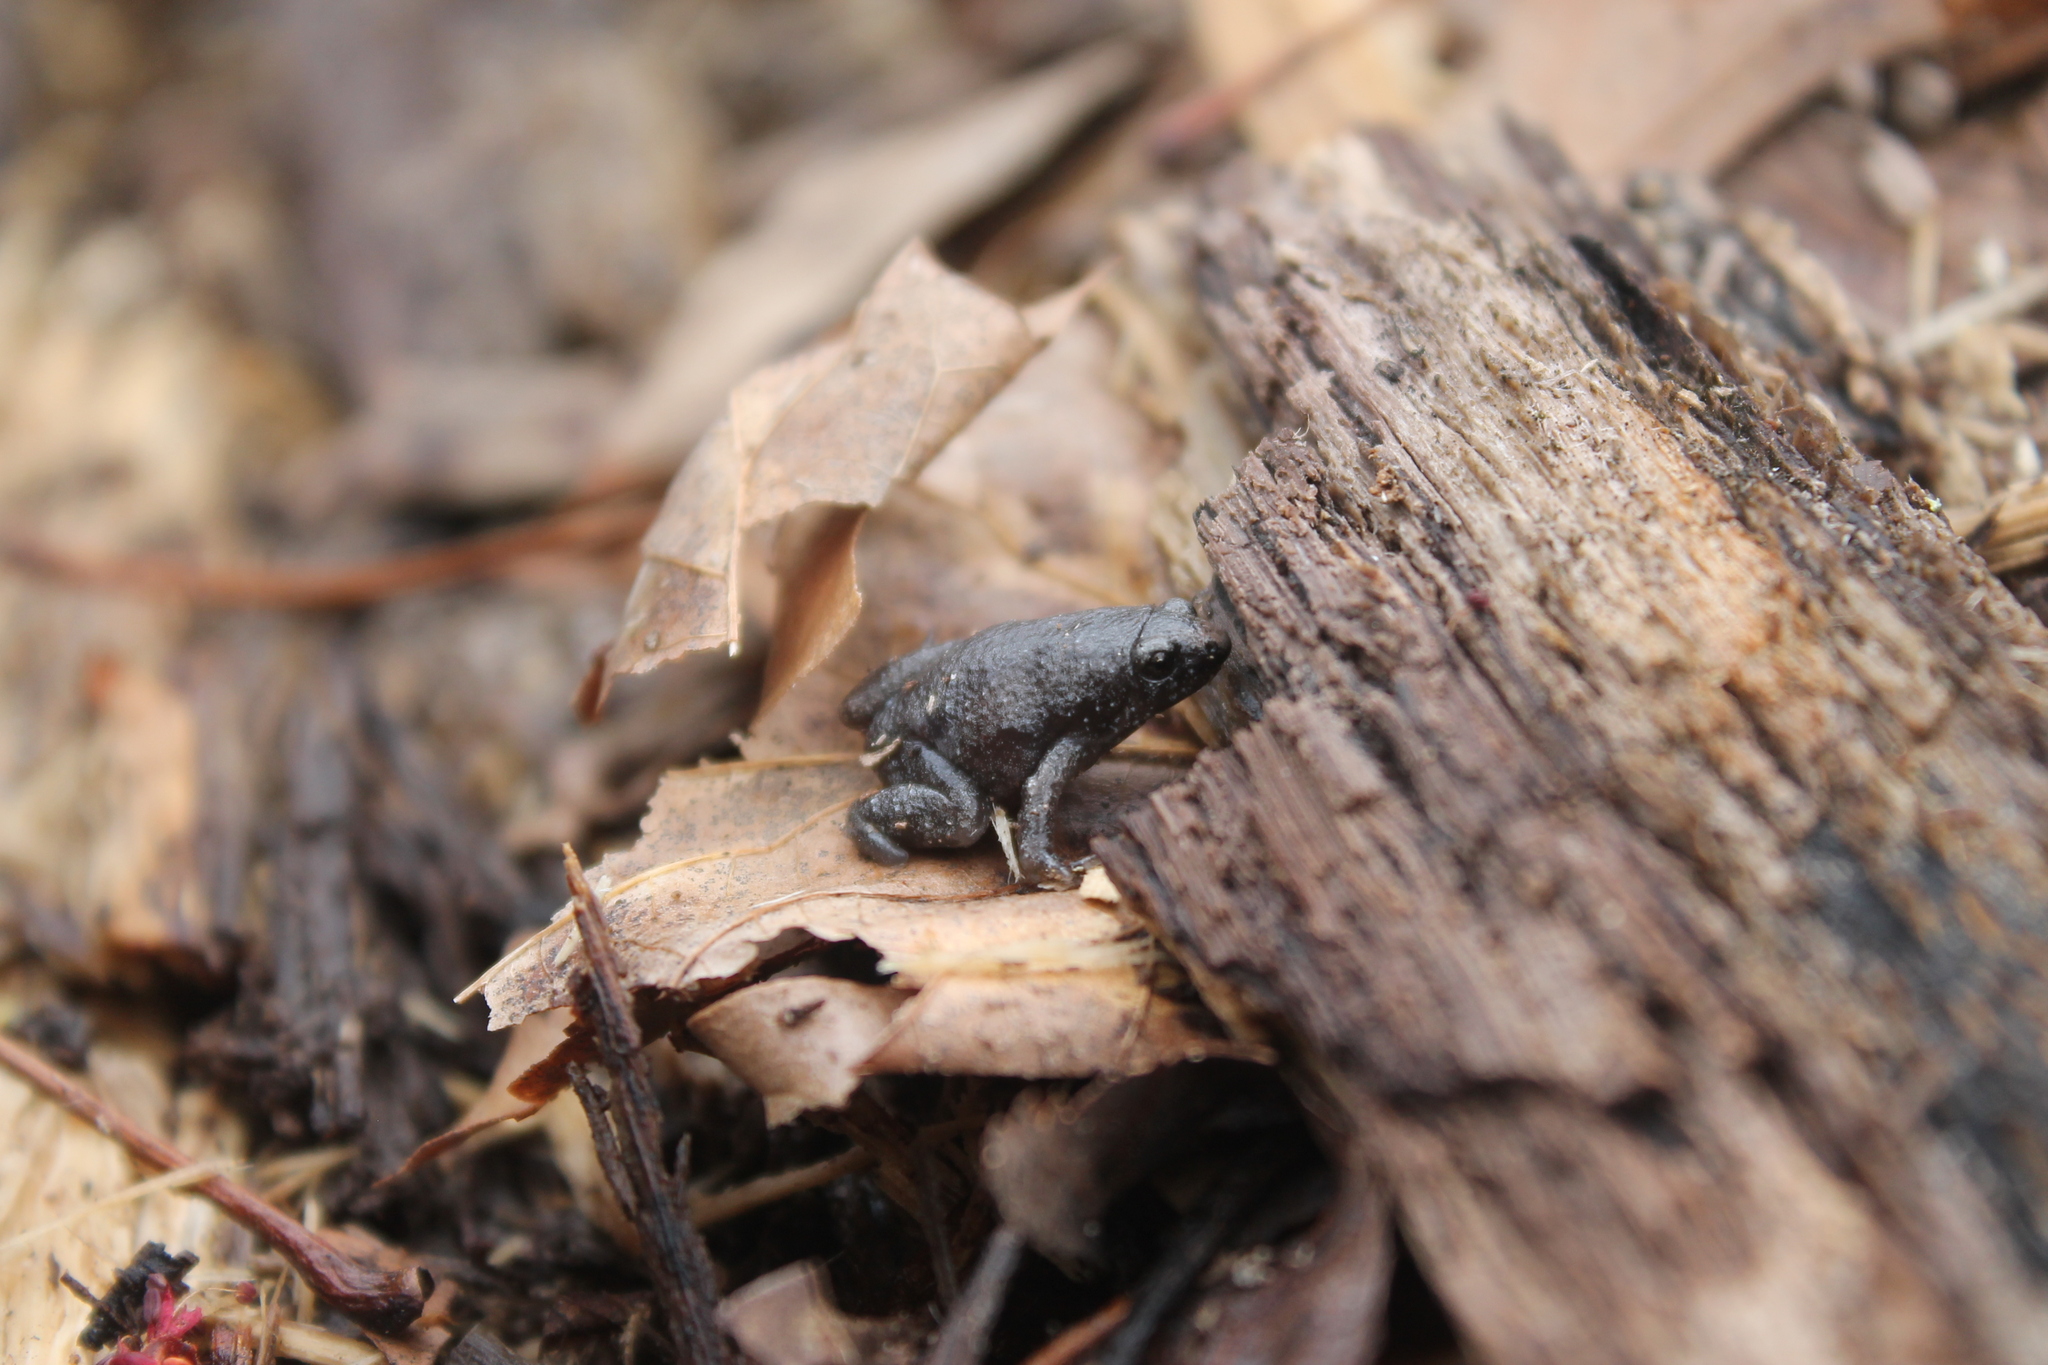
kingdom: Animalia
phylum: Chordata
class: Amphibia
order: Anura
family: Microhylidae
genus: Gastrophryne
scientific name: Gastrophryne carolinensis
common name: Eastern narrowmouth toad
